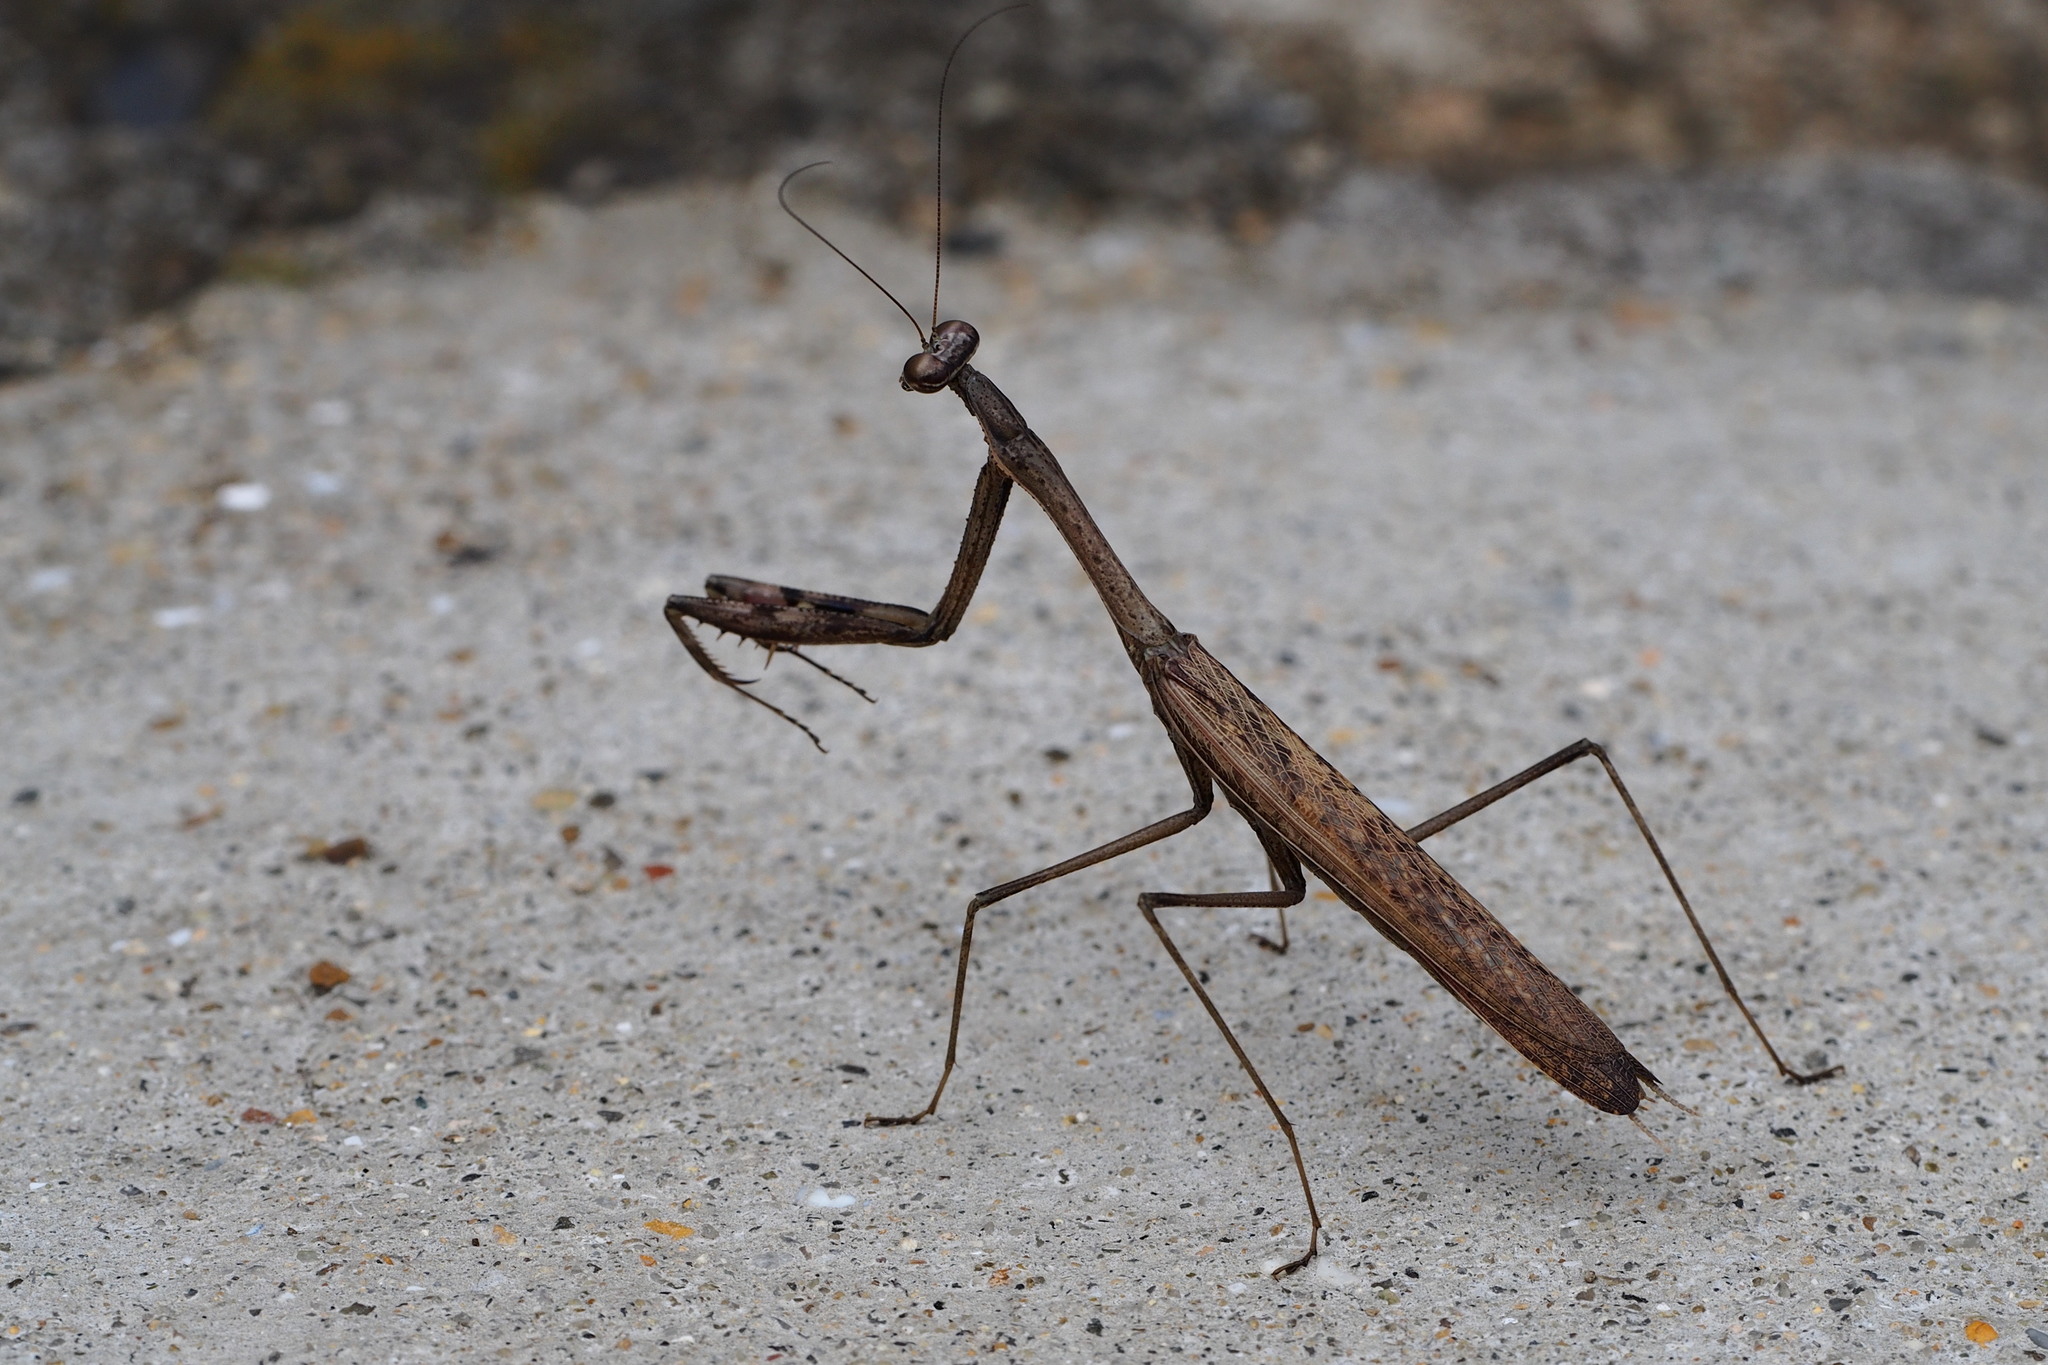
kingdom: Animalia
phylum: Arthropoda
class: Insecta
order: Mantodea
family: Mantidae
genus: Statilia
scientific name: Statilia maculata
